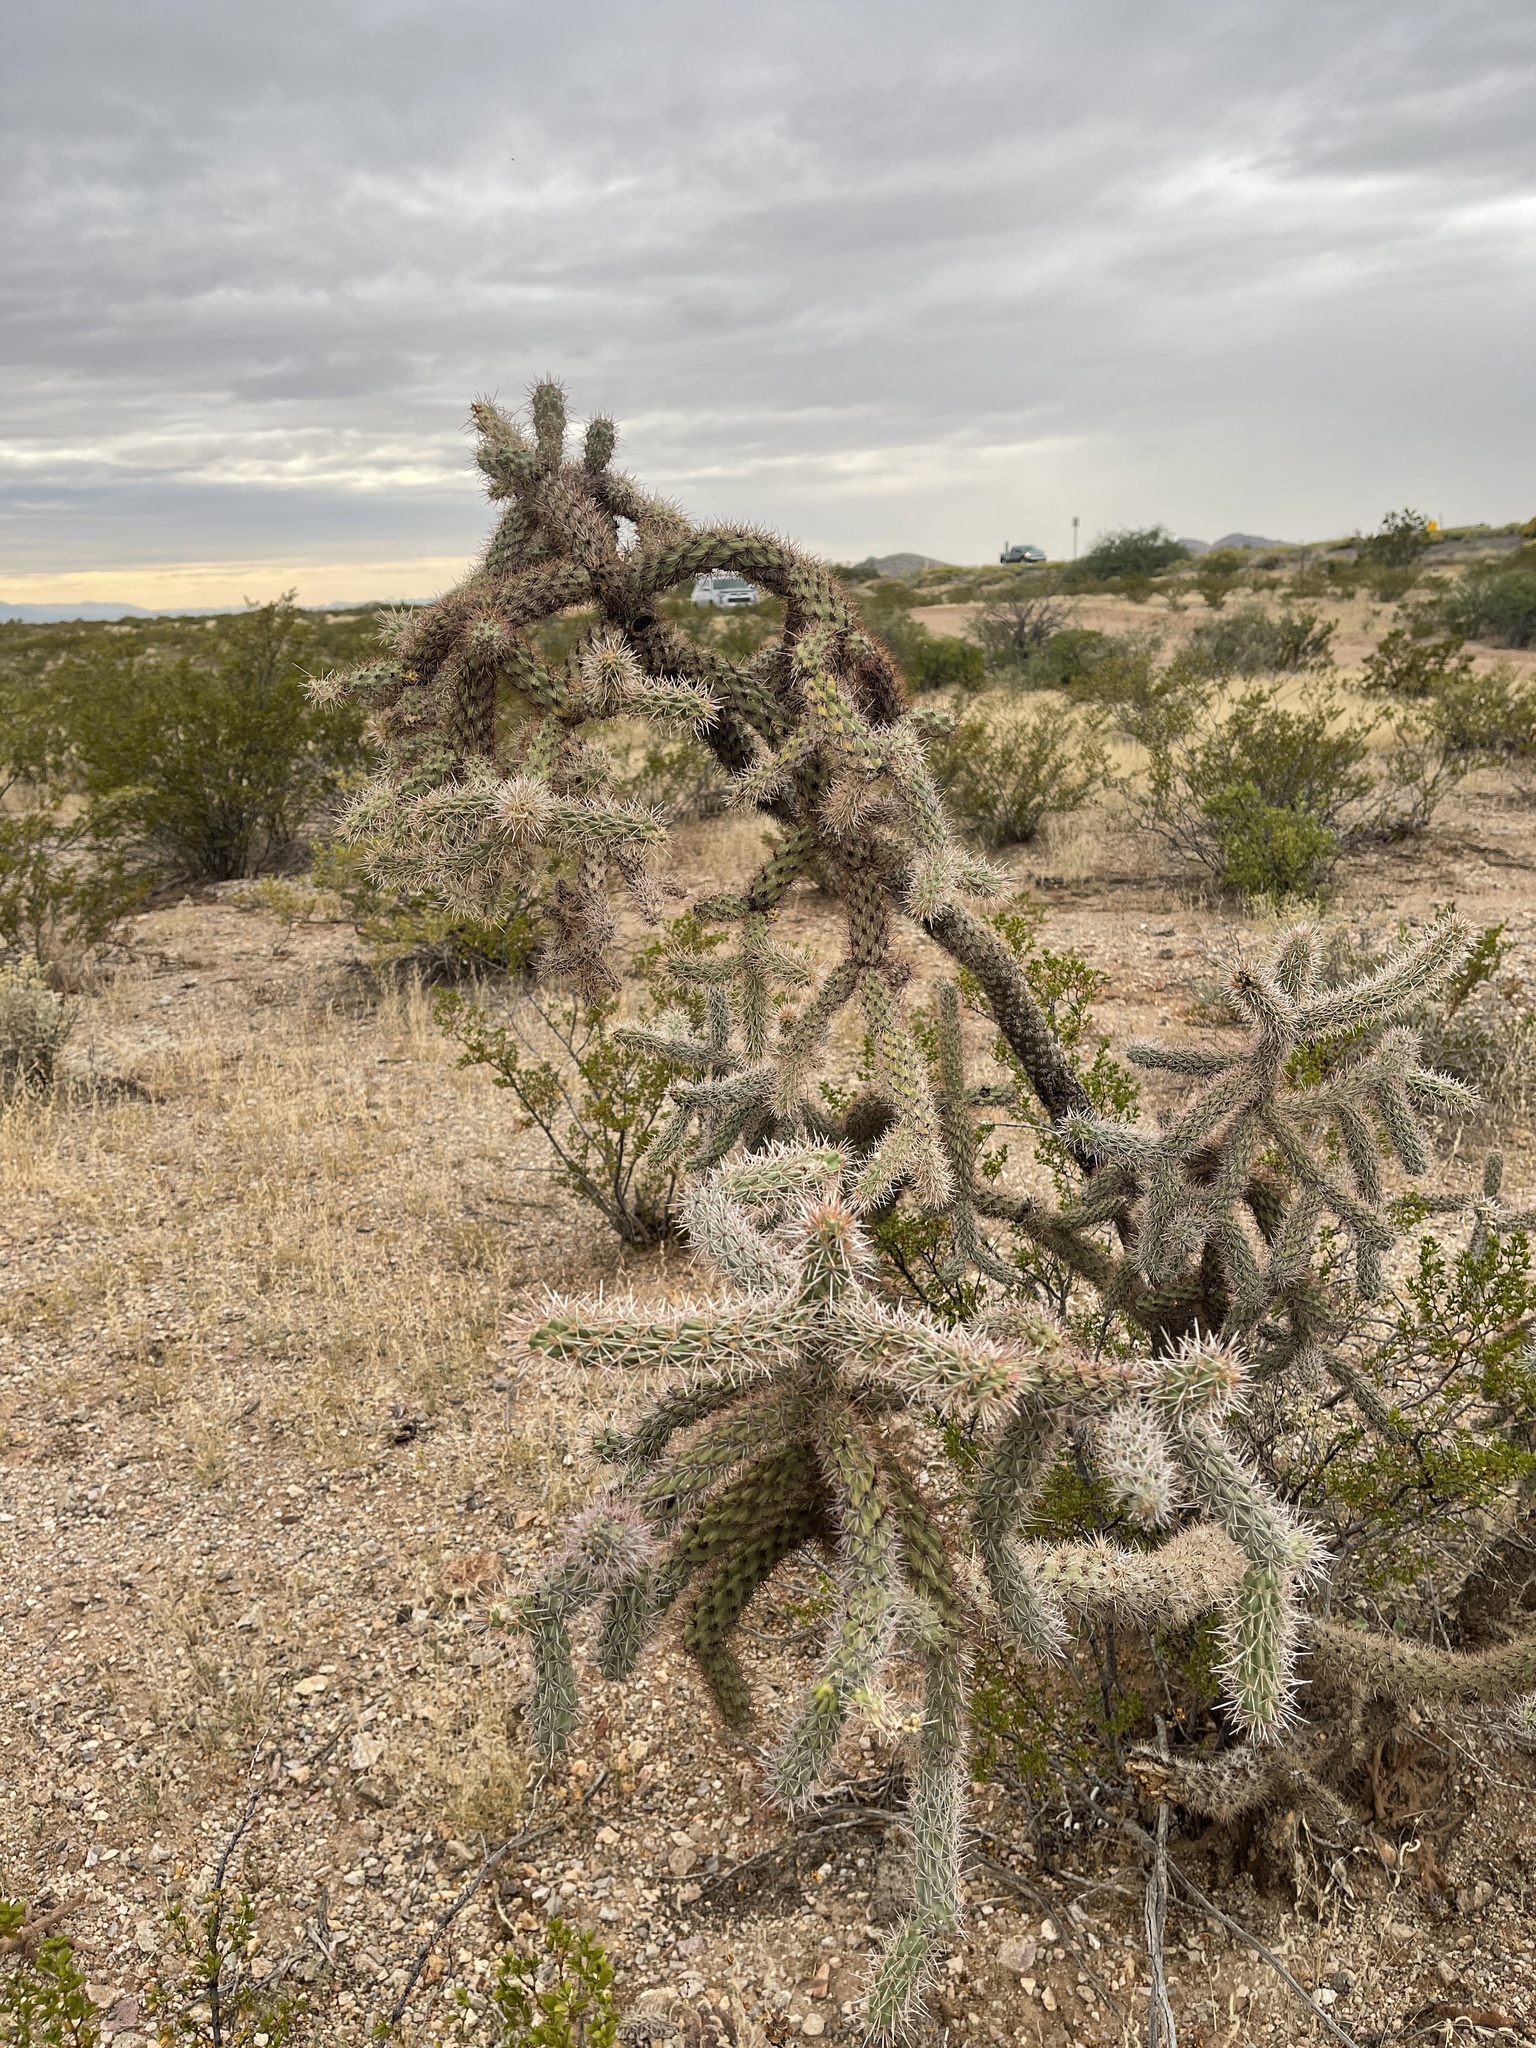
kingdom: Plantae
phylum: Tracheophyta
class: Magnoliopsida
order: Caryophyllales
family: Cactaceae
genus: Cylindropuntia
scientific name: Cylindropuntia imbricata
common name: Candelabrum cactus
